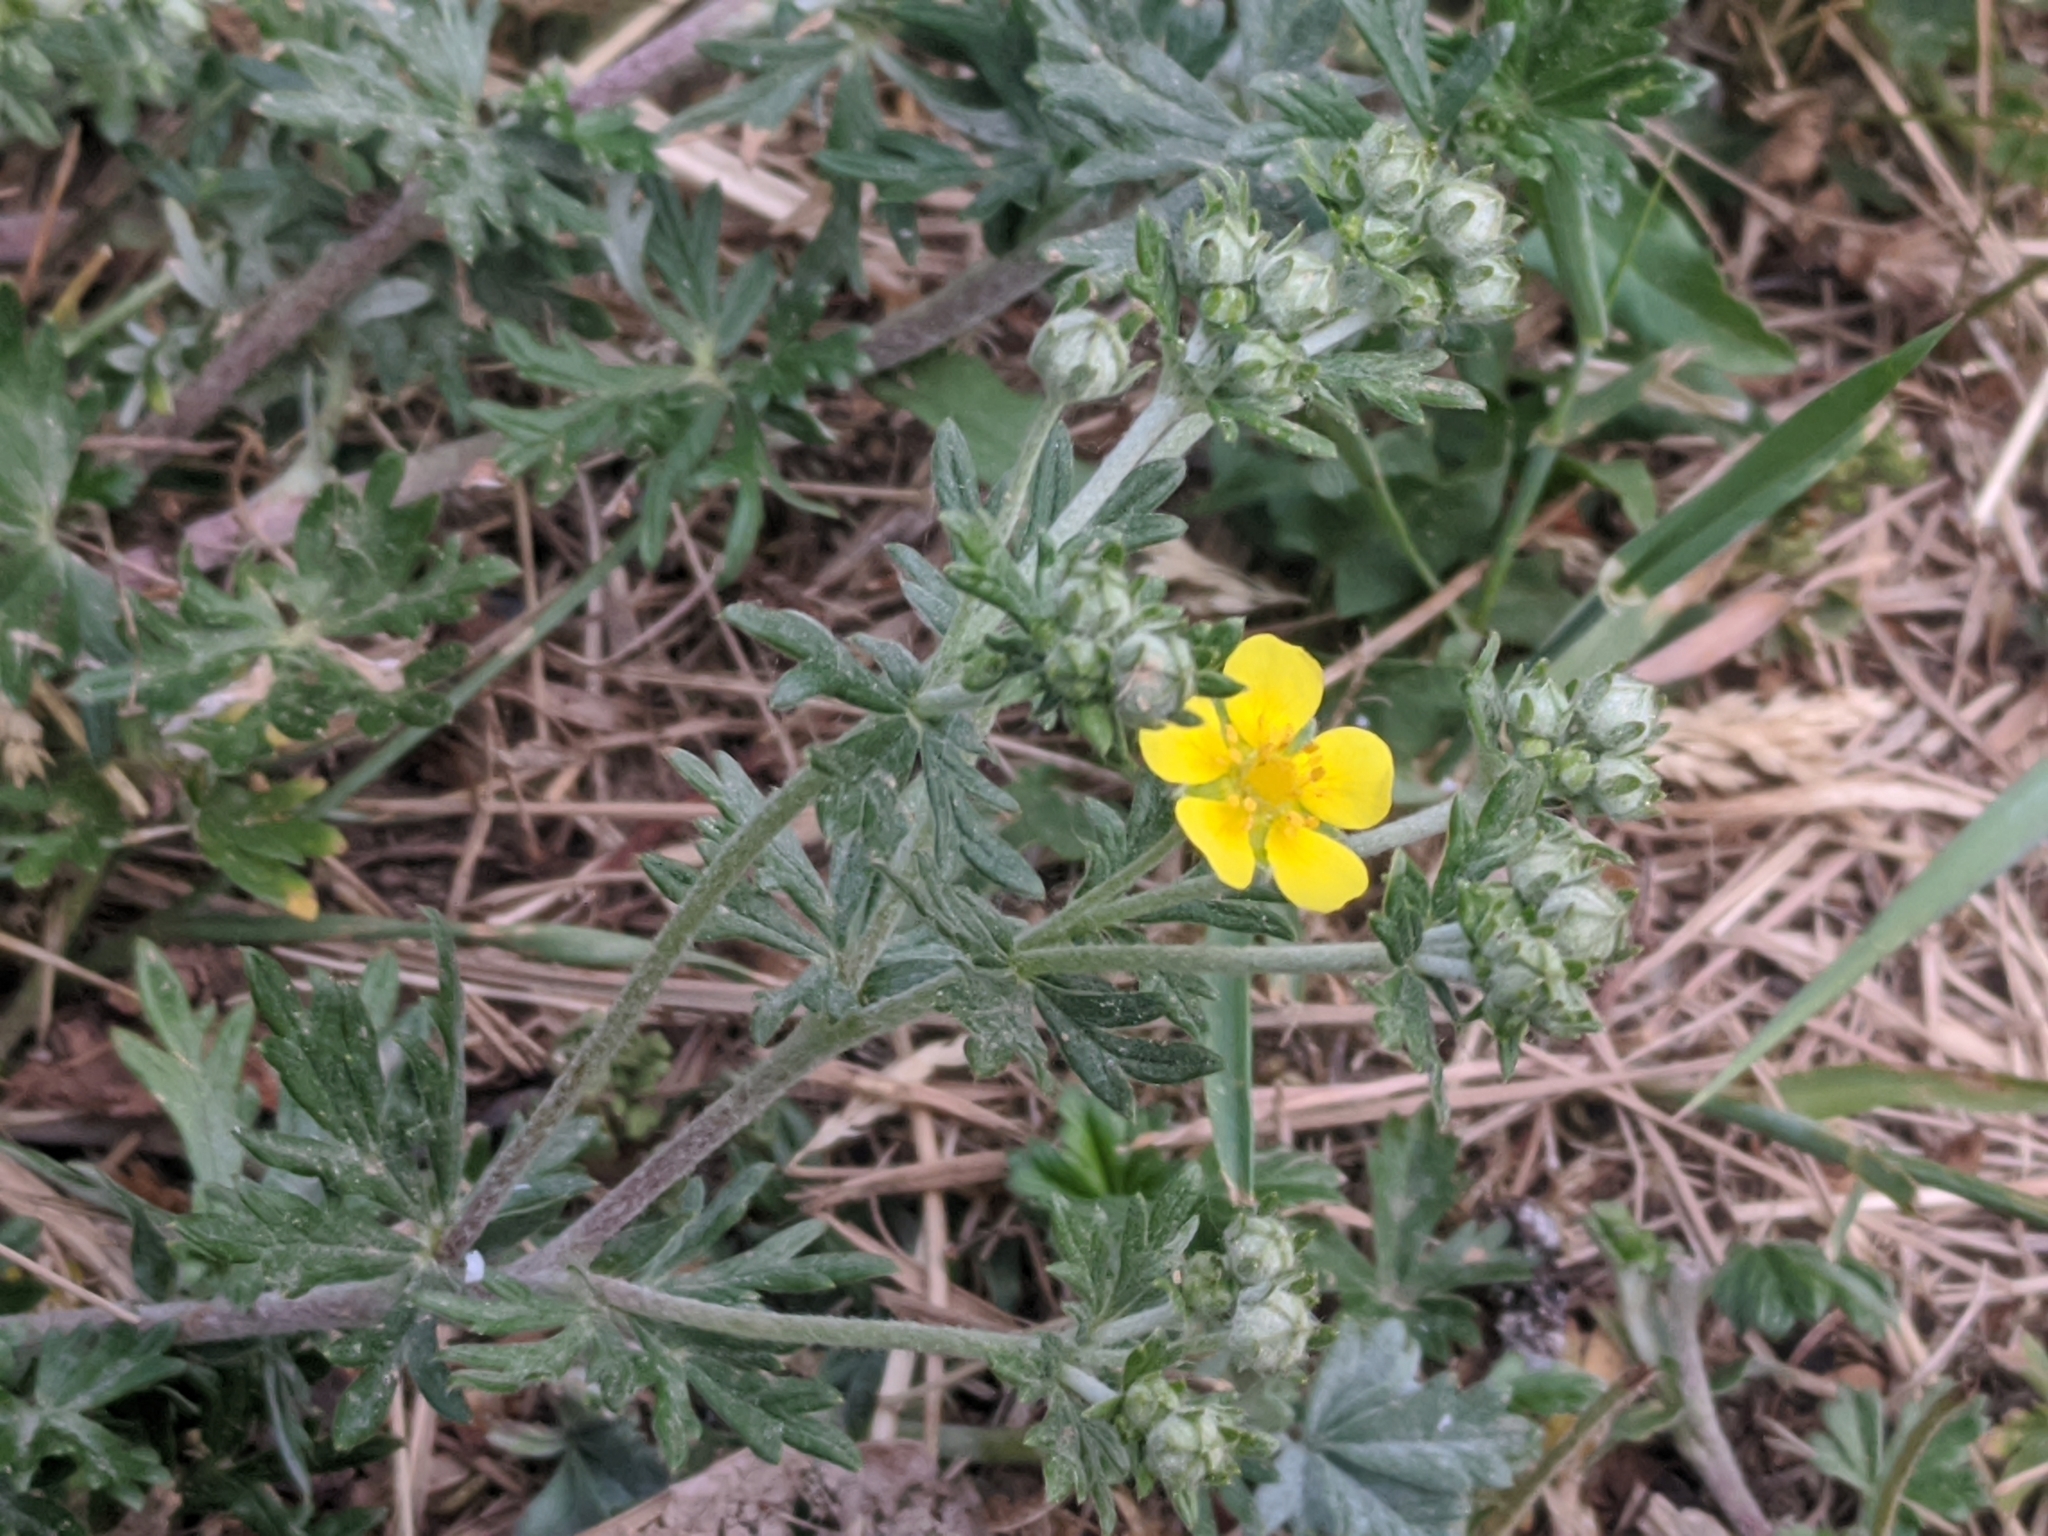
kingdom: Plantae
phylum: Tracheophyta
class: Magnoliopsida
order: Rosales
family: Rosaceae
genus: Potentilla
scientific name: Potentilla argentea
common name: Hoary cinquefoil
